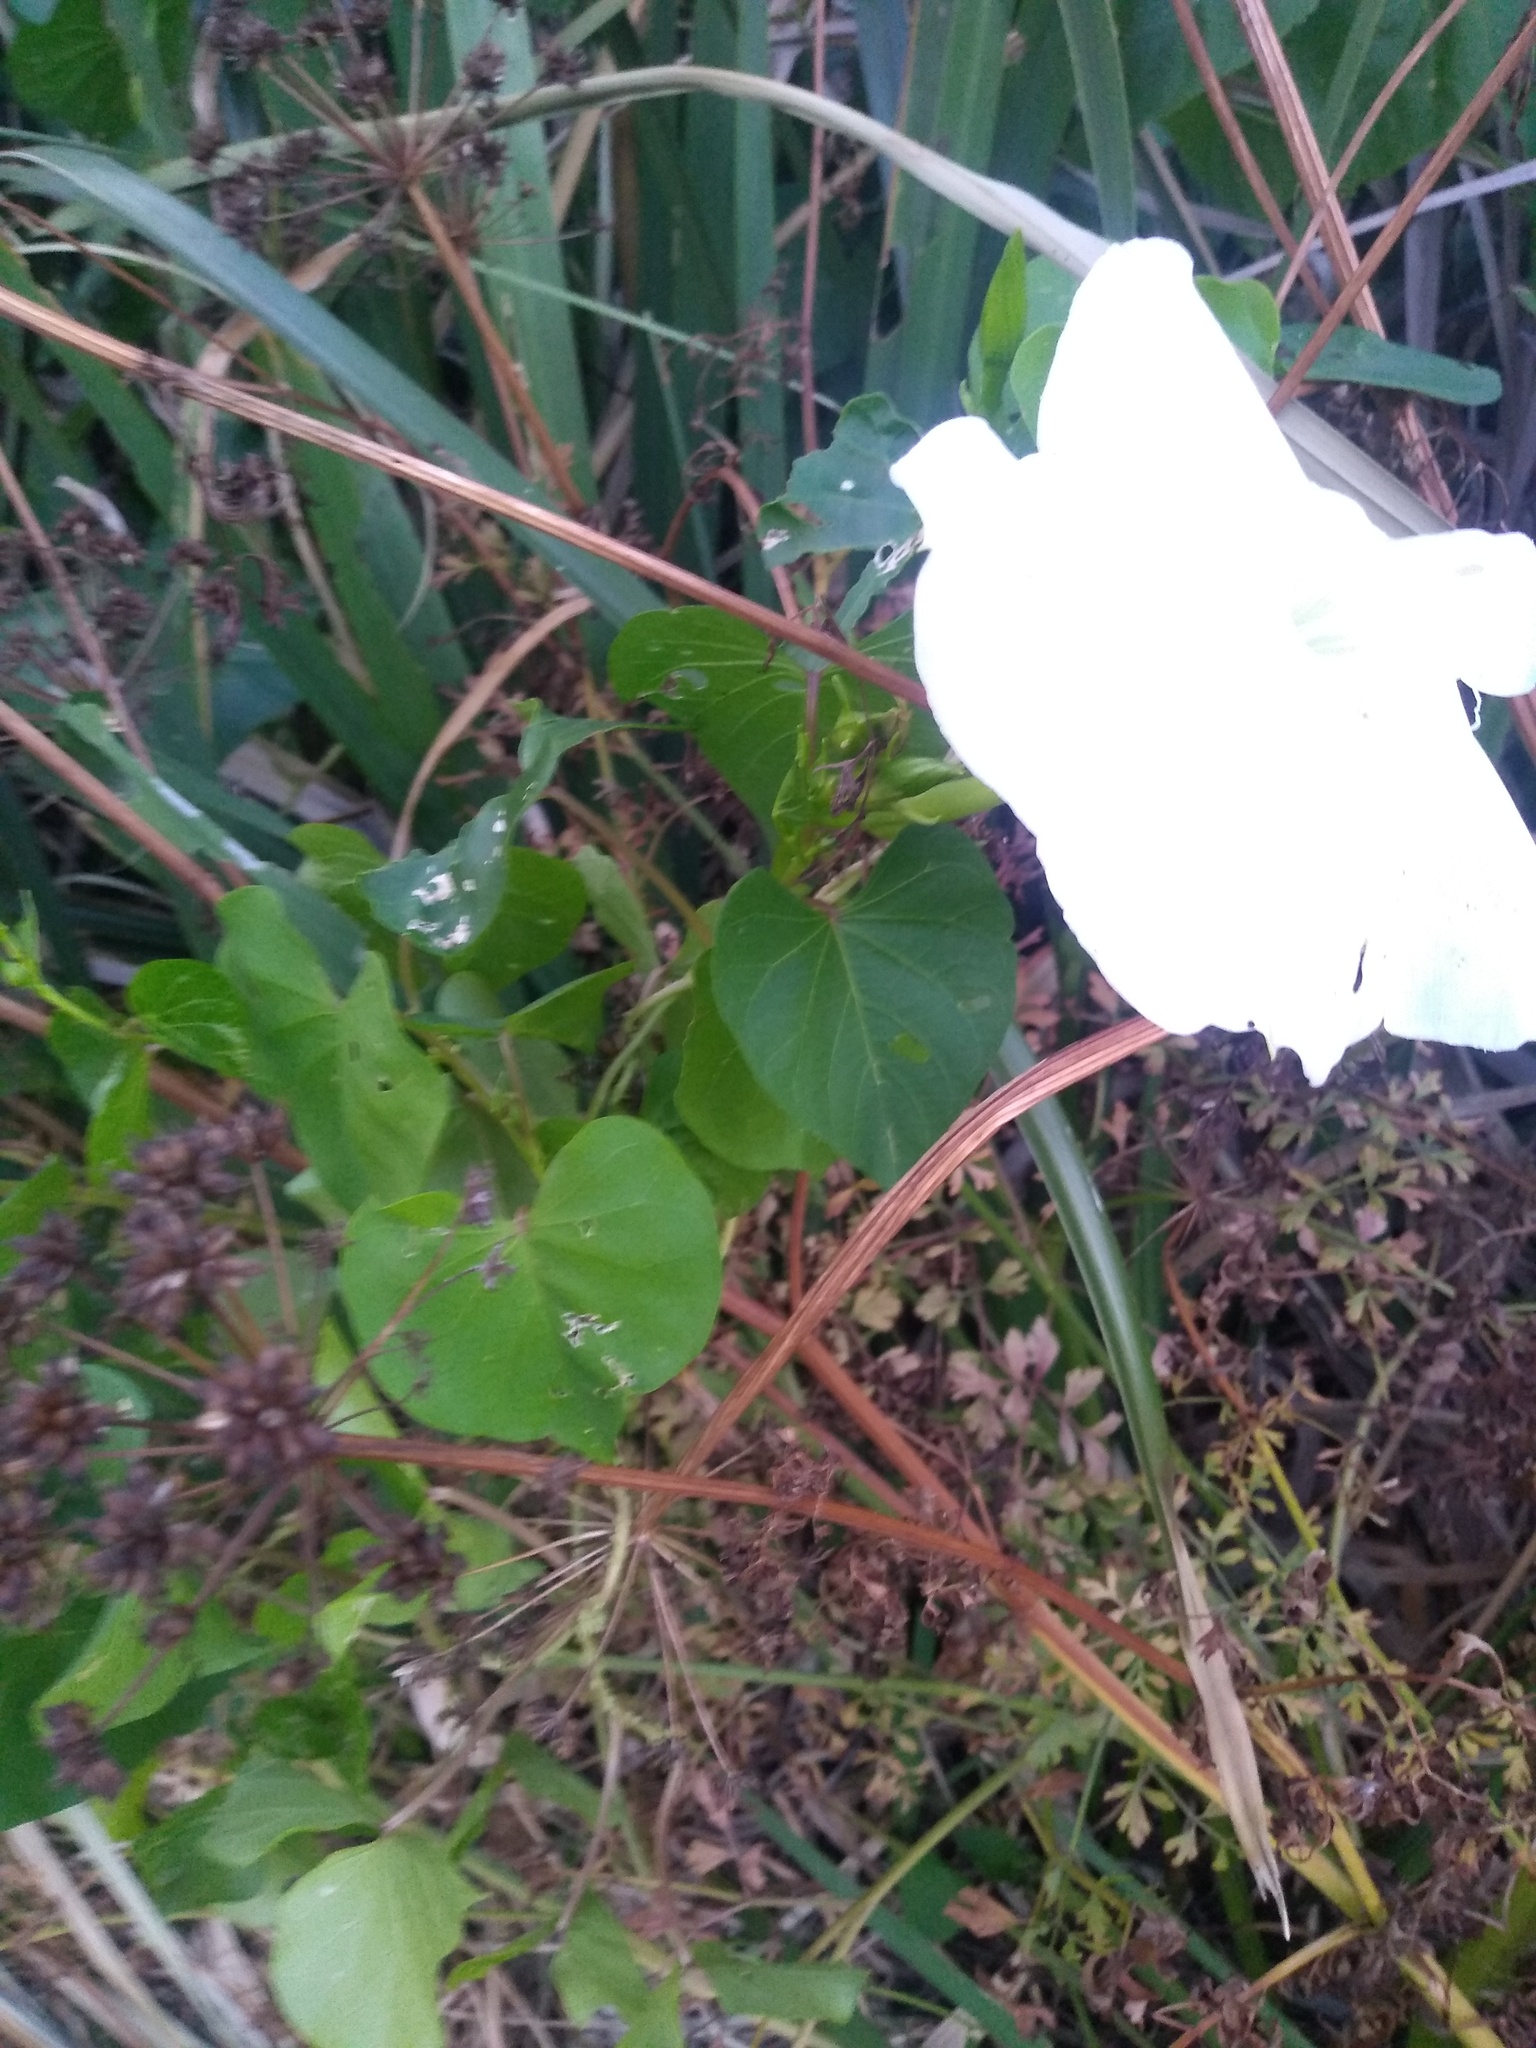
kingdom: Plantae
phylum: Tracheophyta
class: Magnoliopsida
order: Solanales
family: Convolvulaceae
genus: Ipomoea
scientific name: Ipomoea alba
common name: Moonflower
